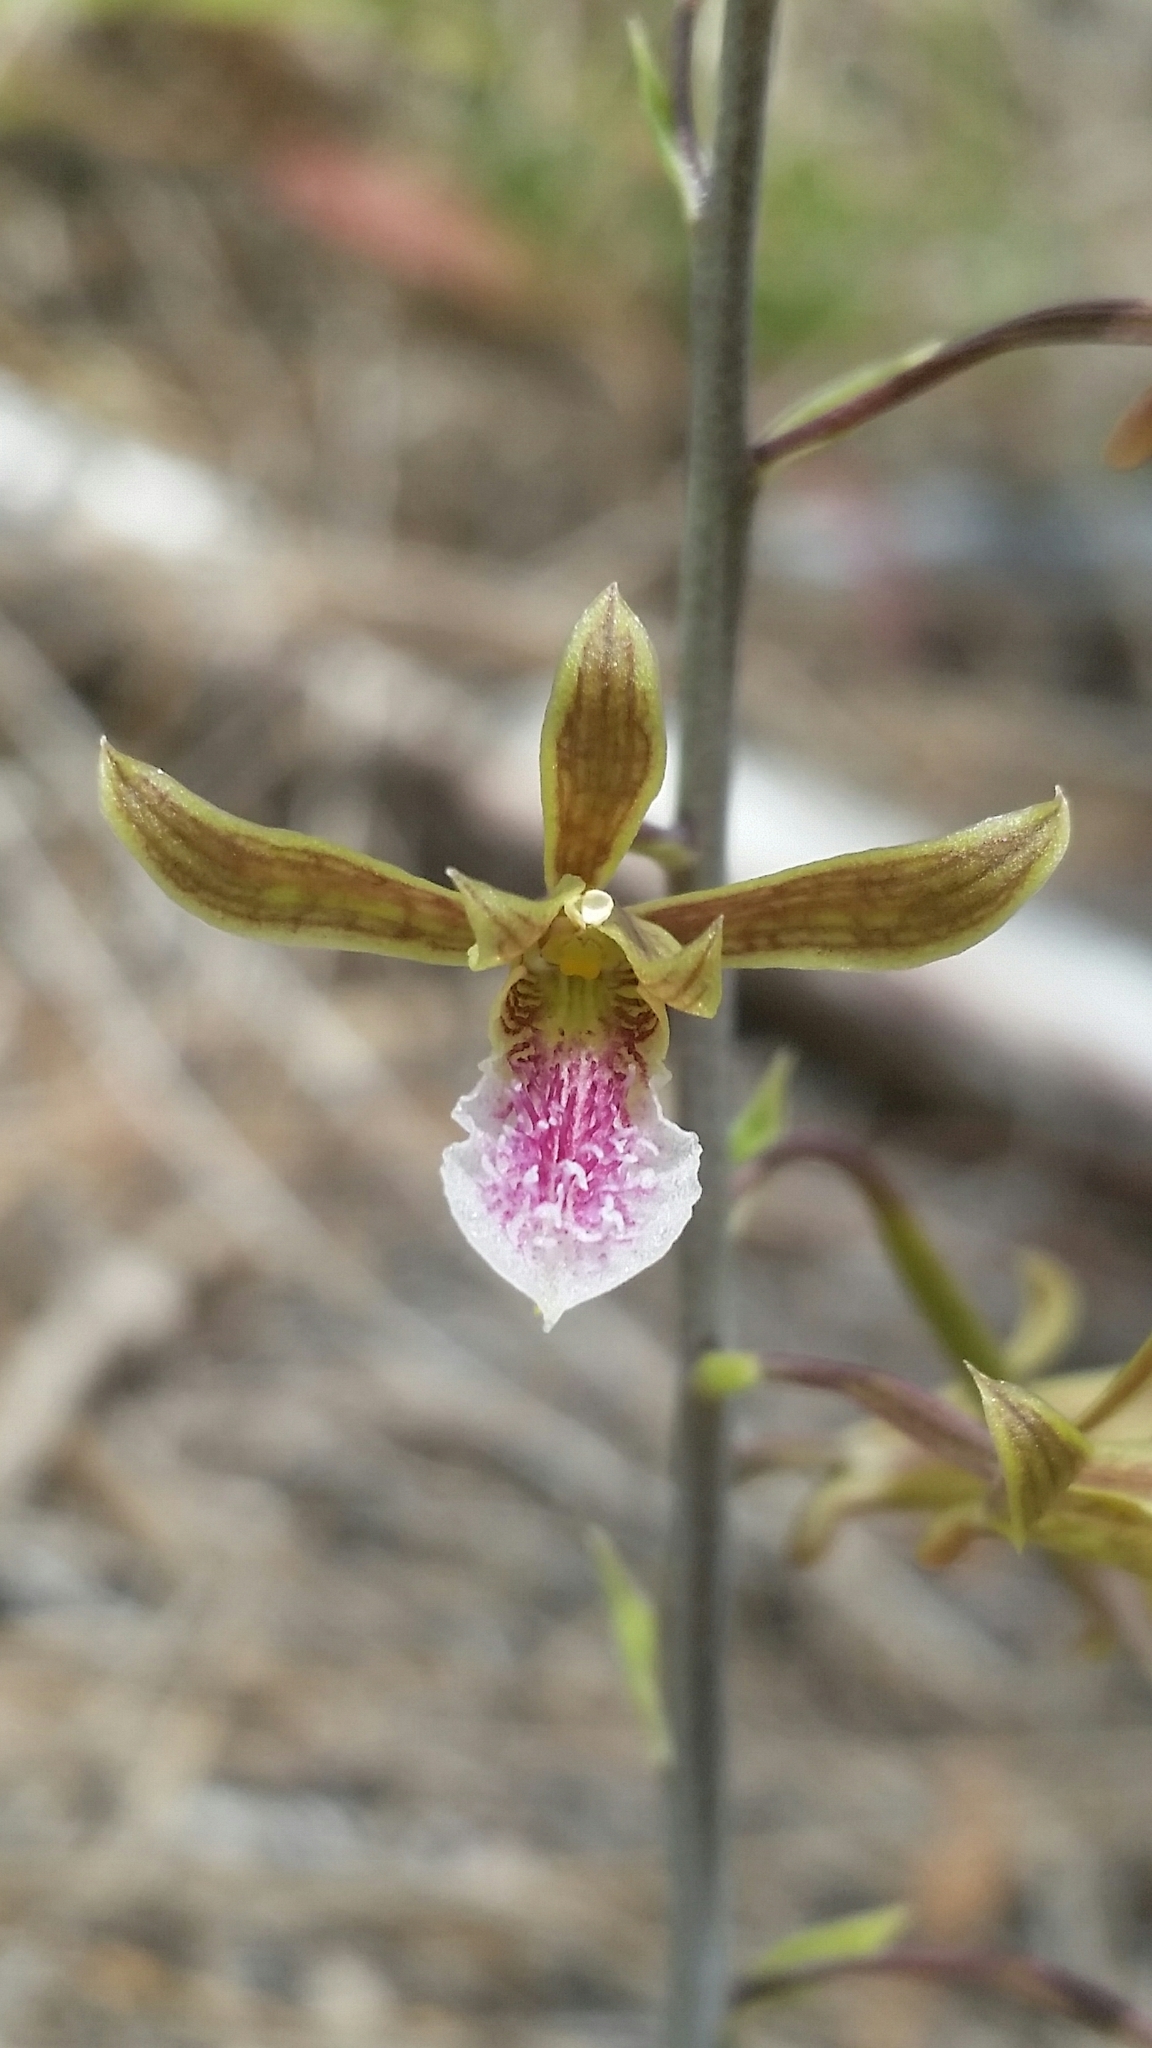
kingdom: Plantae
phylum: Tracheophyta
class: Liliopsida
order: Asparagales
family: Orchidaceae
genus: Eulophia
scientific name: Eulophia graminea
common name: Orchid
